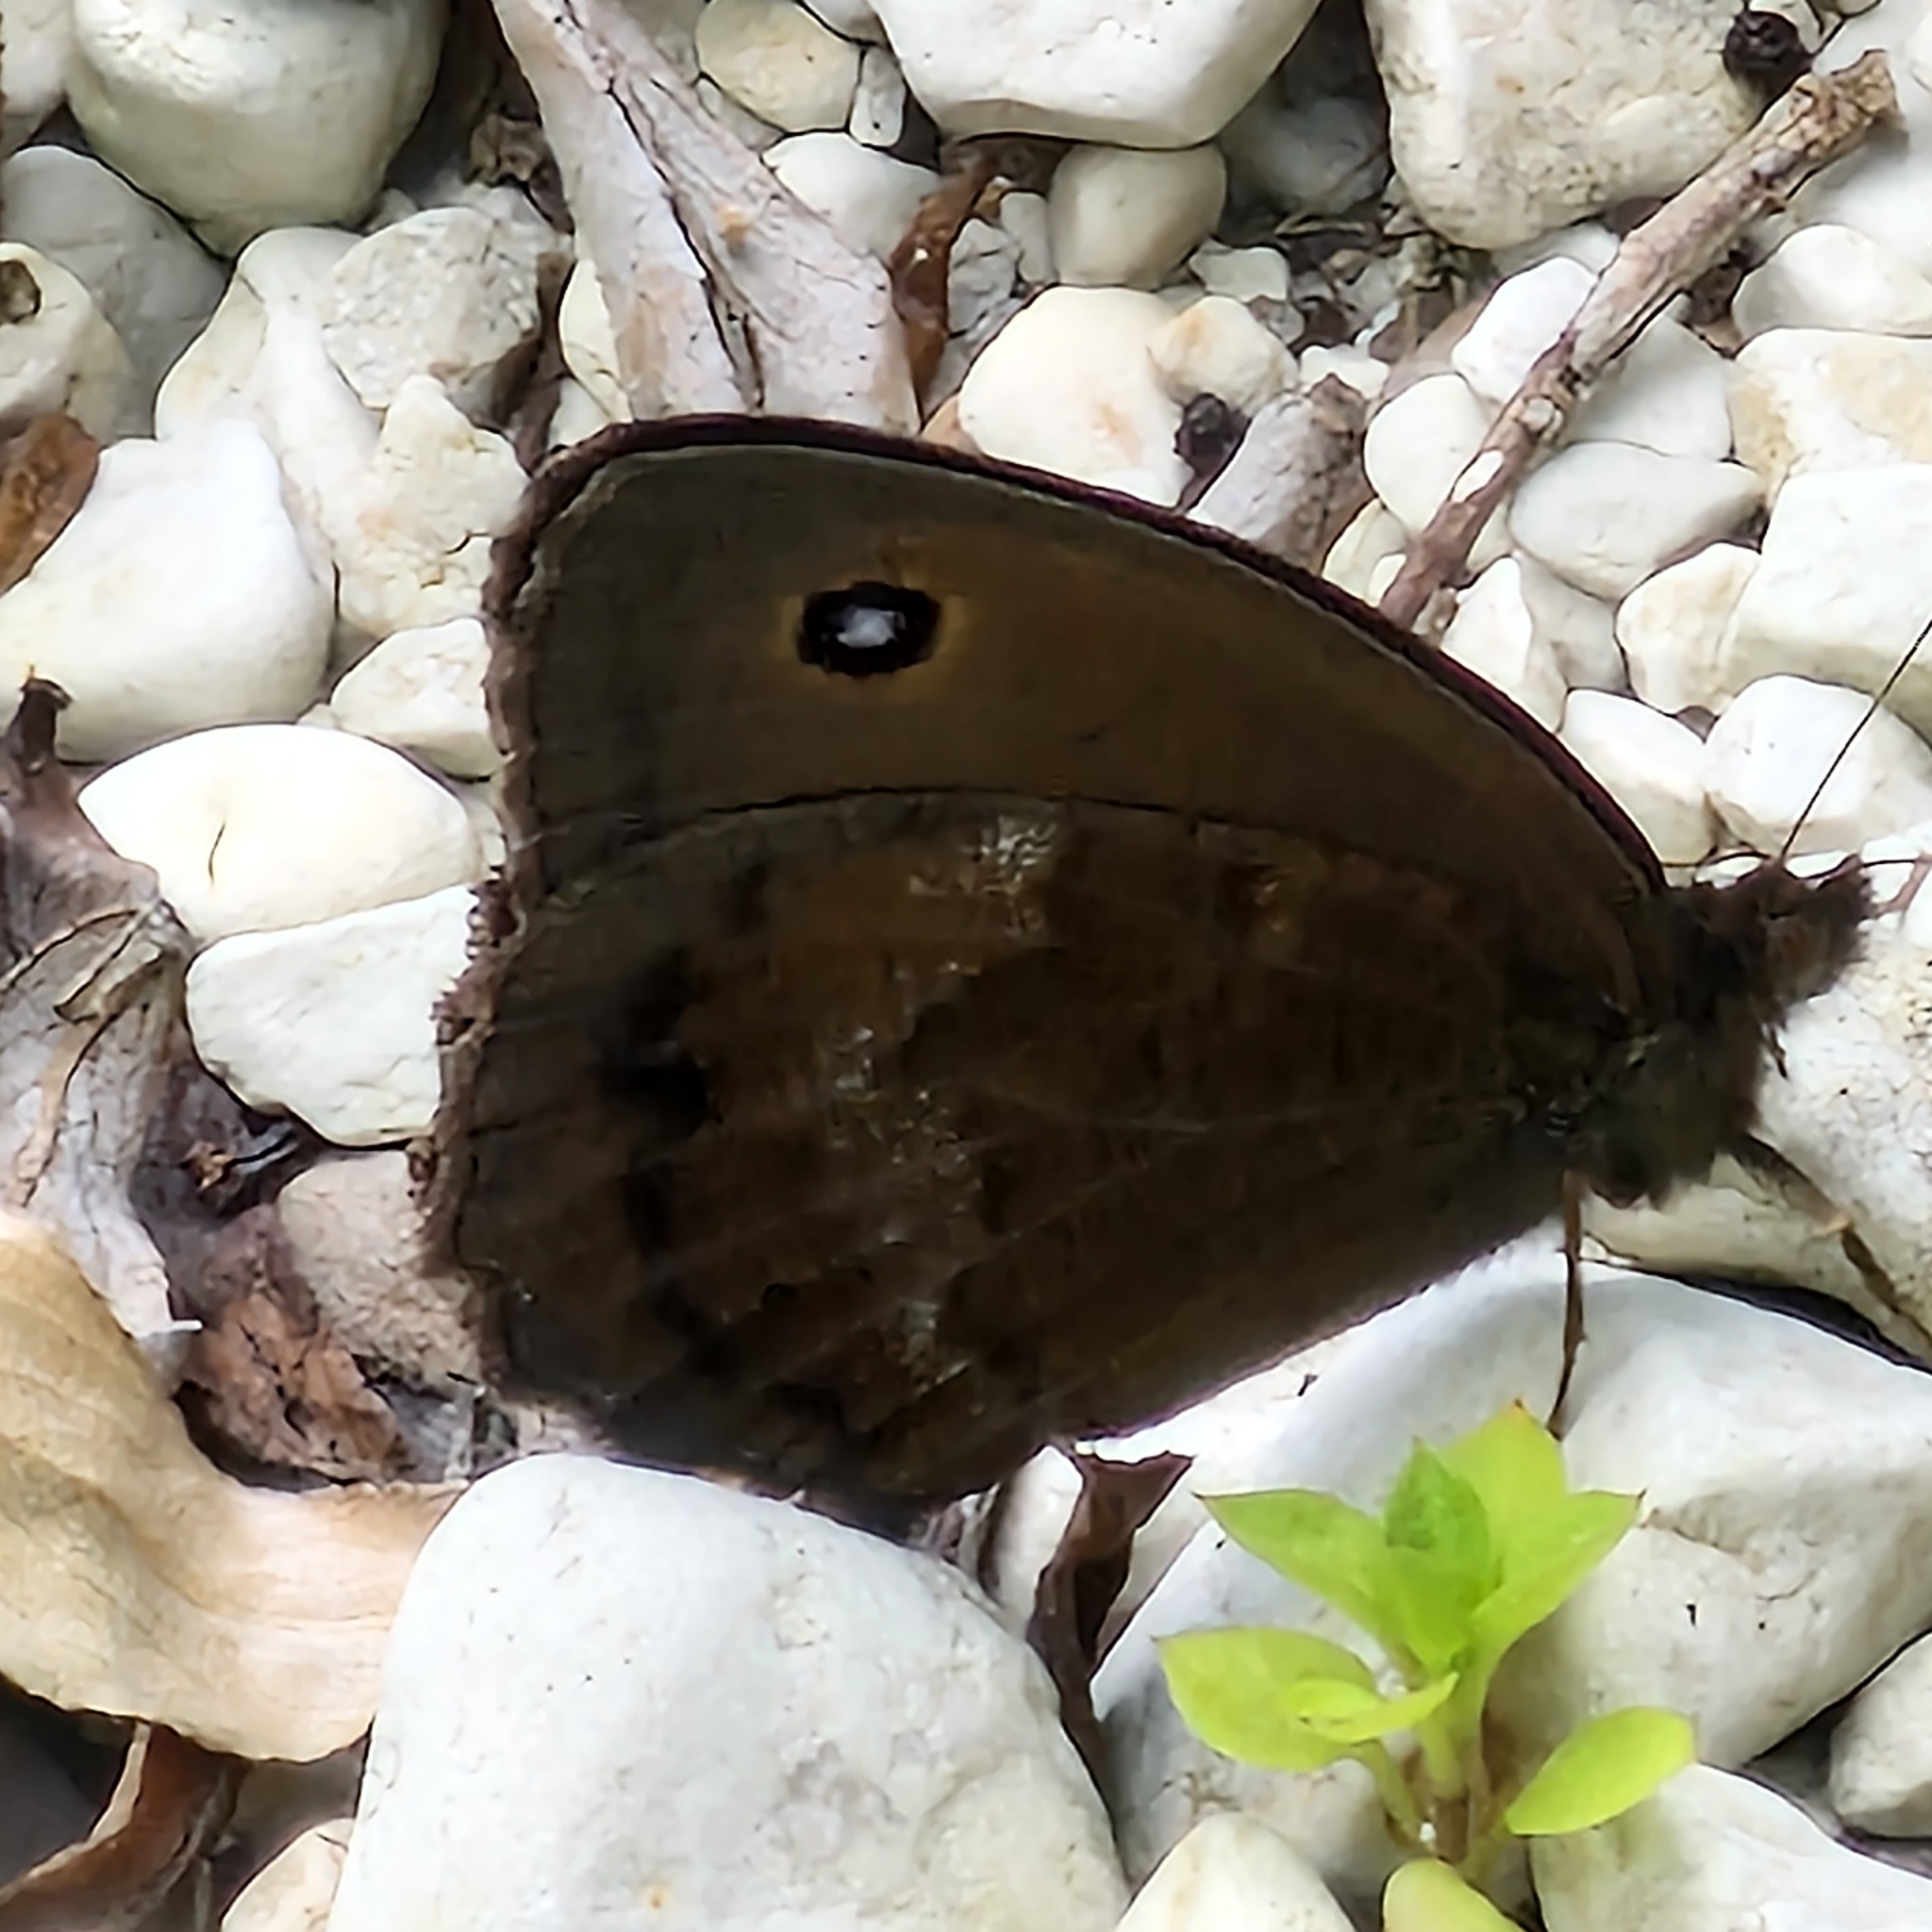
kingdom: Animalia
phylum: Arthropoda
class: Insecta
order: Lepidoptera
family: Nymphalidae
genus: Minois
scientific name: Minois dryas
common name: Dryad
